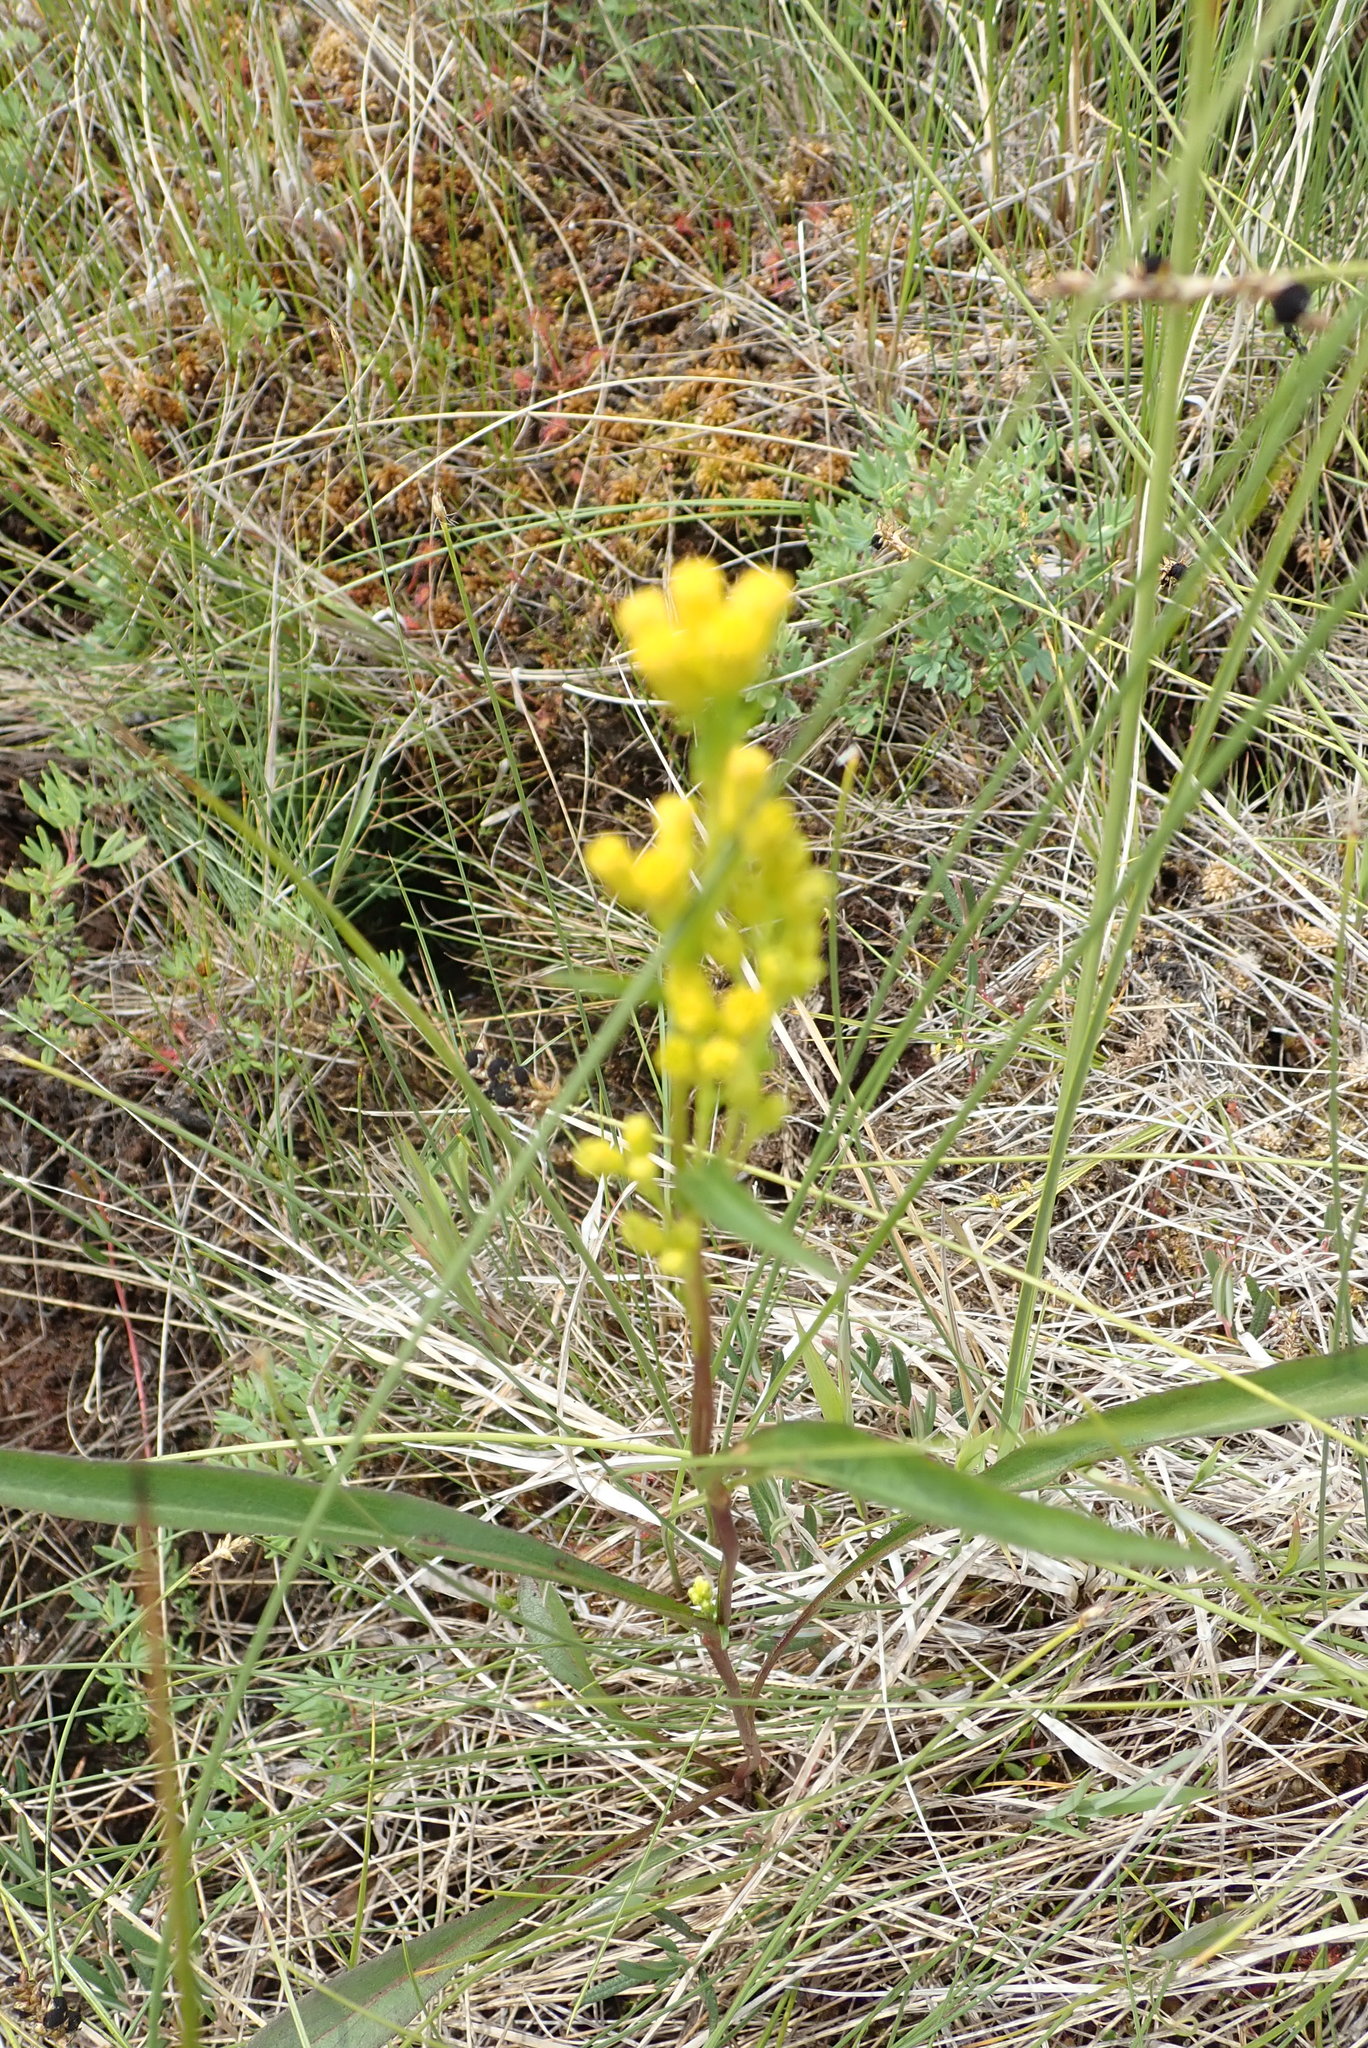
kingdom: Plantae
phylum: Tracheophyta
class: Magnoliopsida
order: Asterales
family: Asteraceae
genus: Solidago
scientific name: Solidago uliginosa
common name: Bog goldenrod
